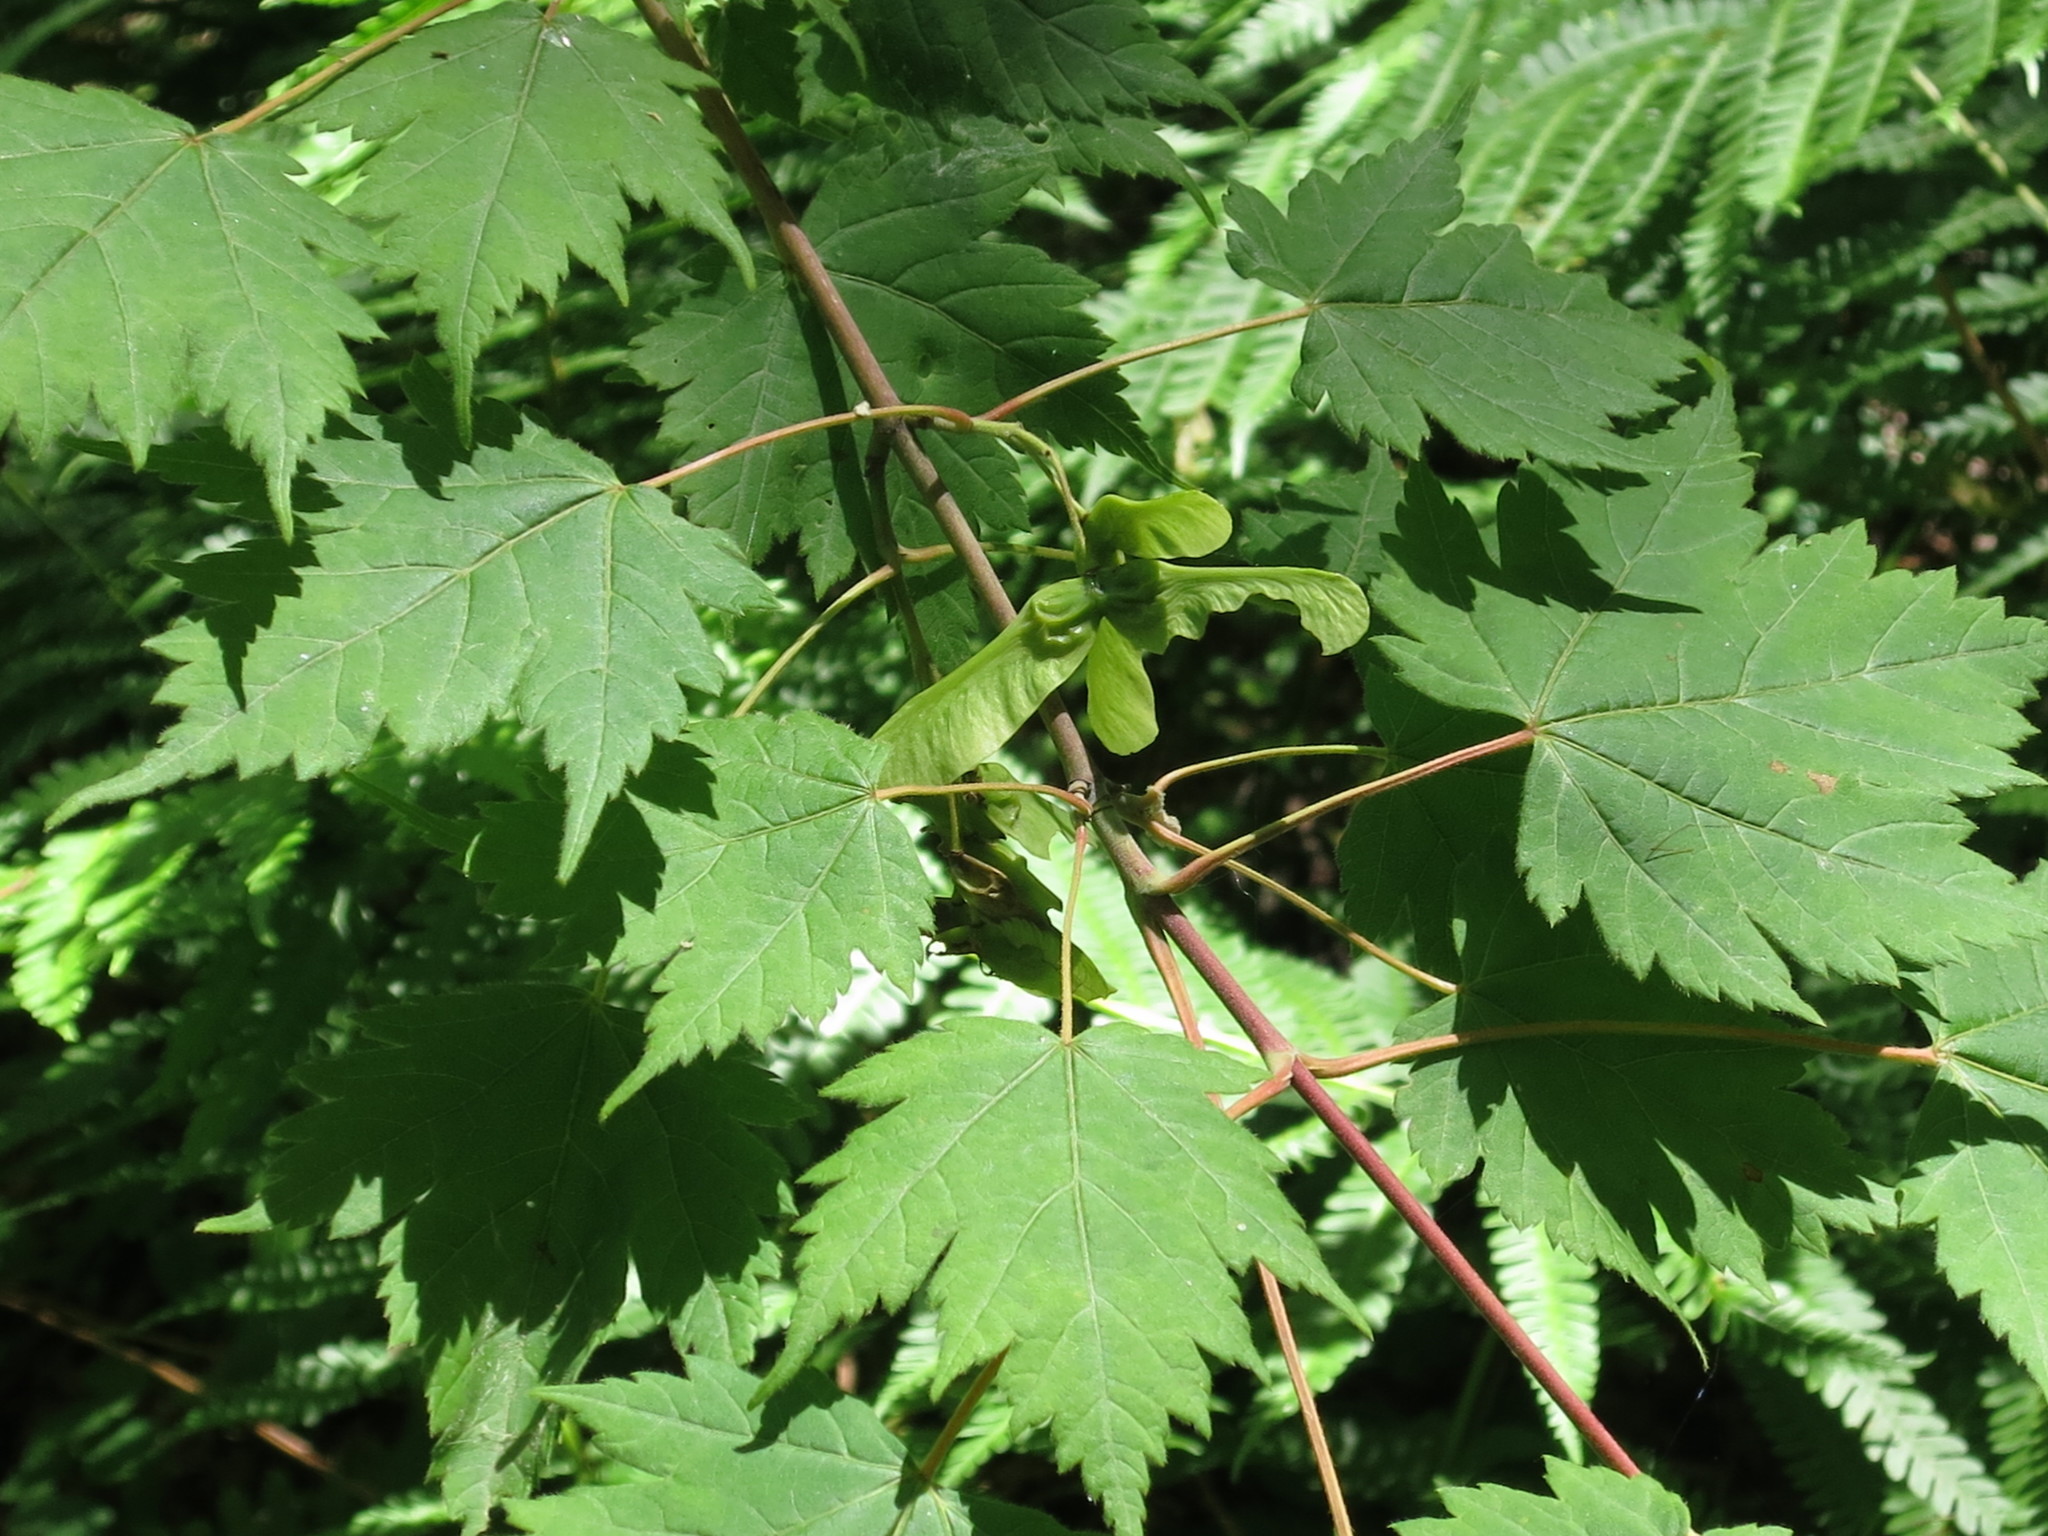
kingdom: Plantae
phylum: Tracheophyta
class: Magnoliopsida
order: Sapindales
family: Sapindaceae
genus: Acer
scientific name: Acer barbinerve
